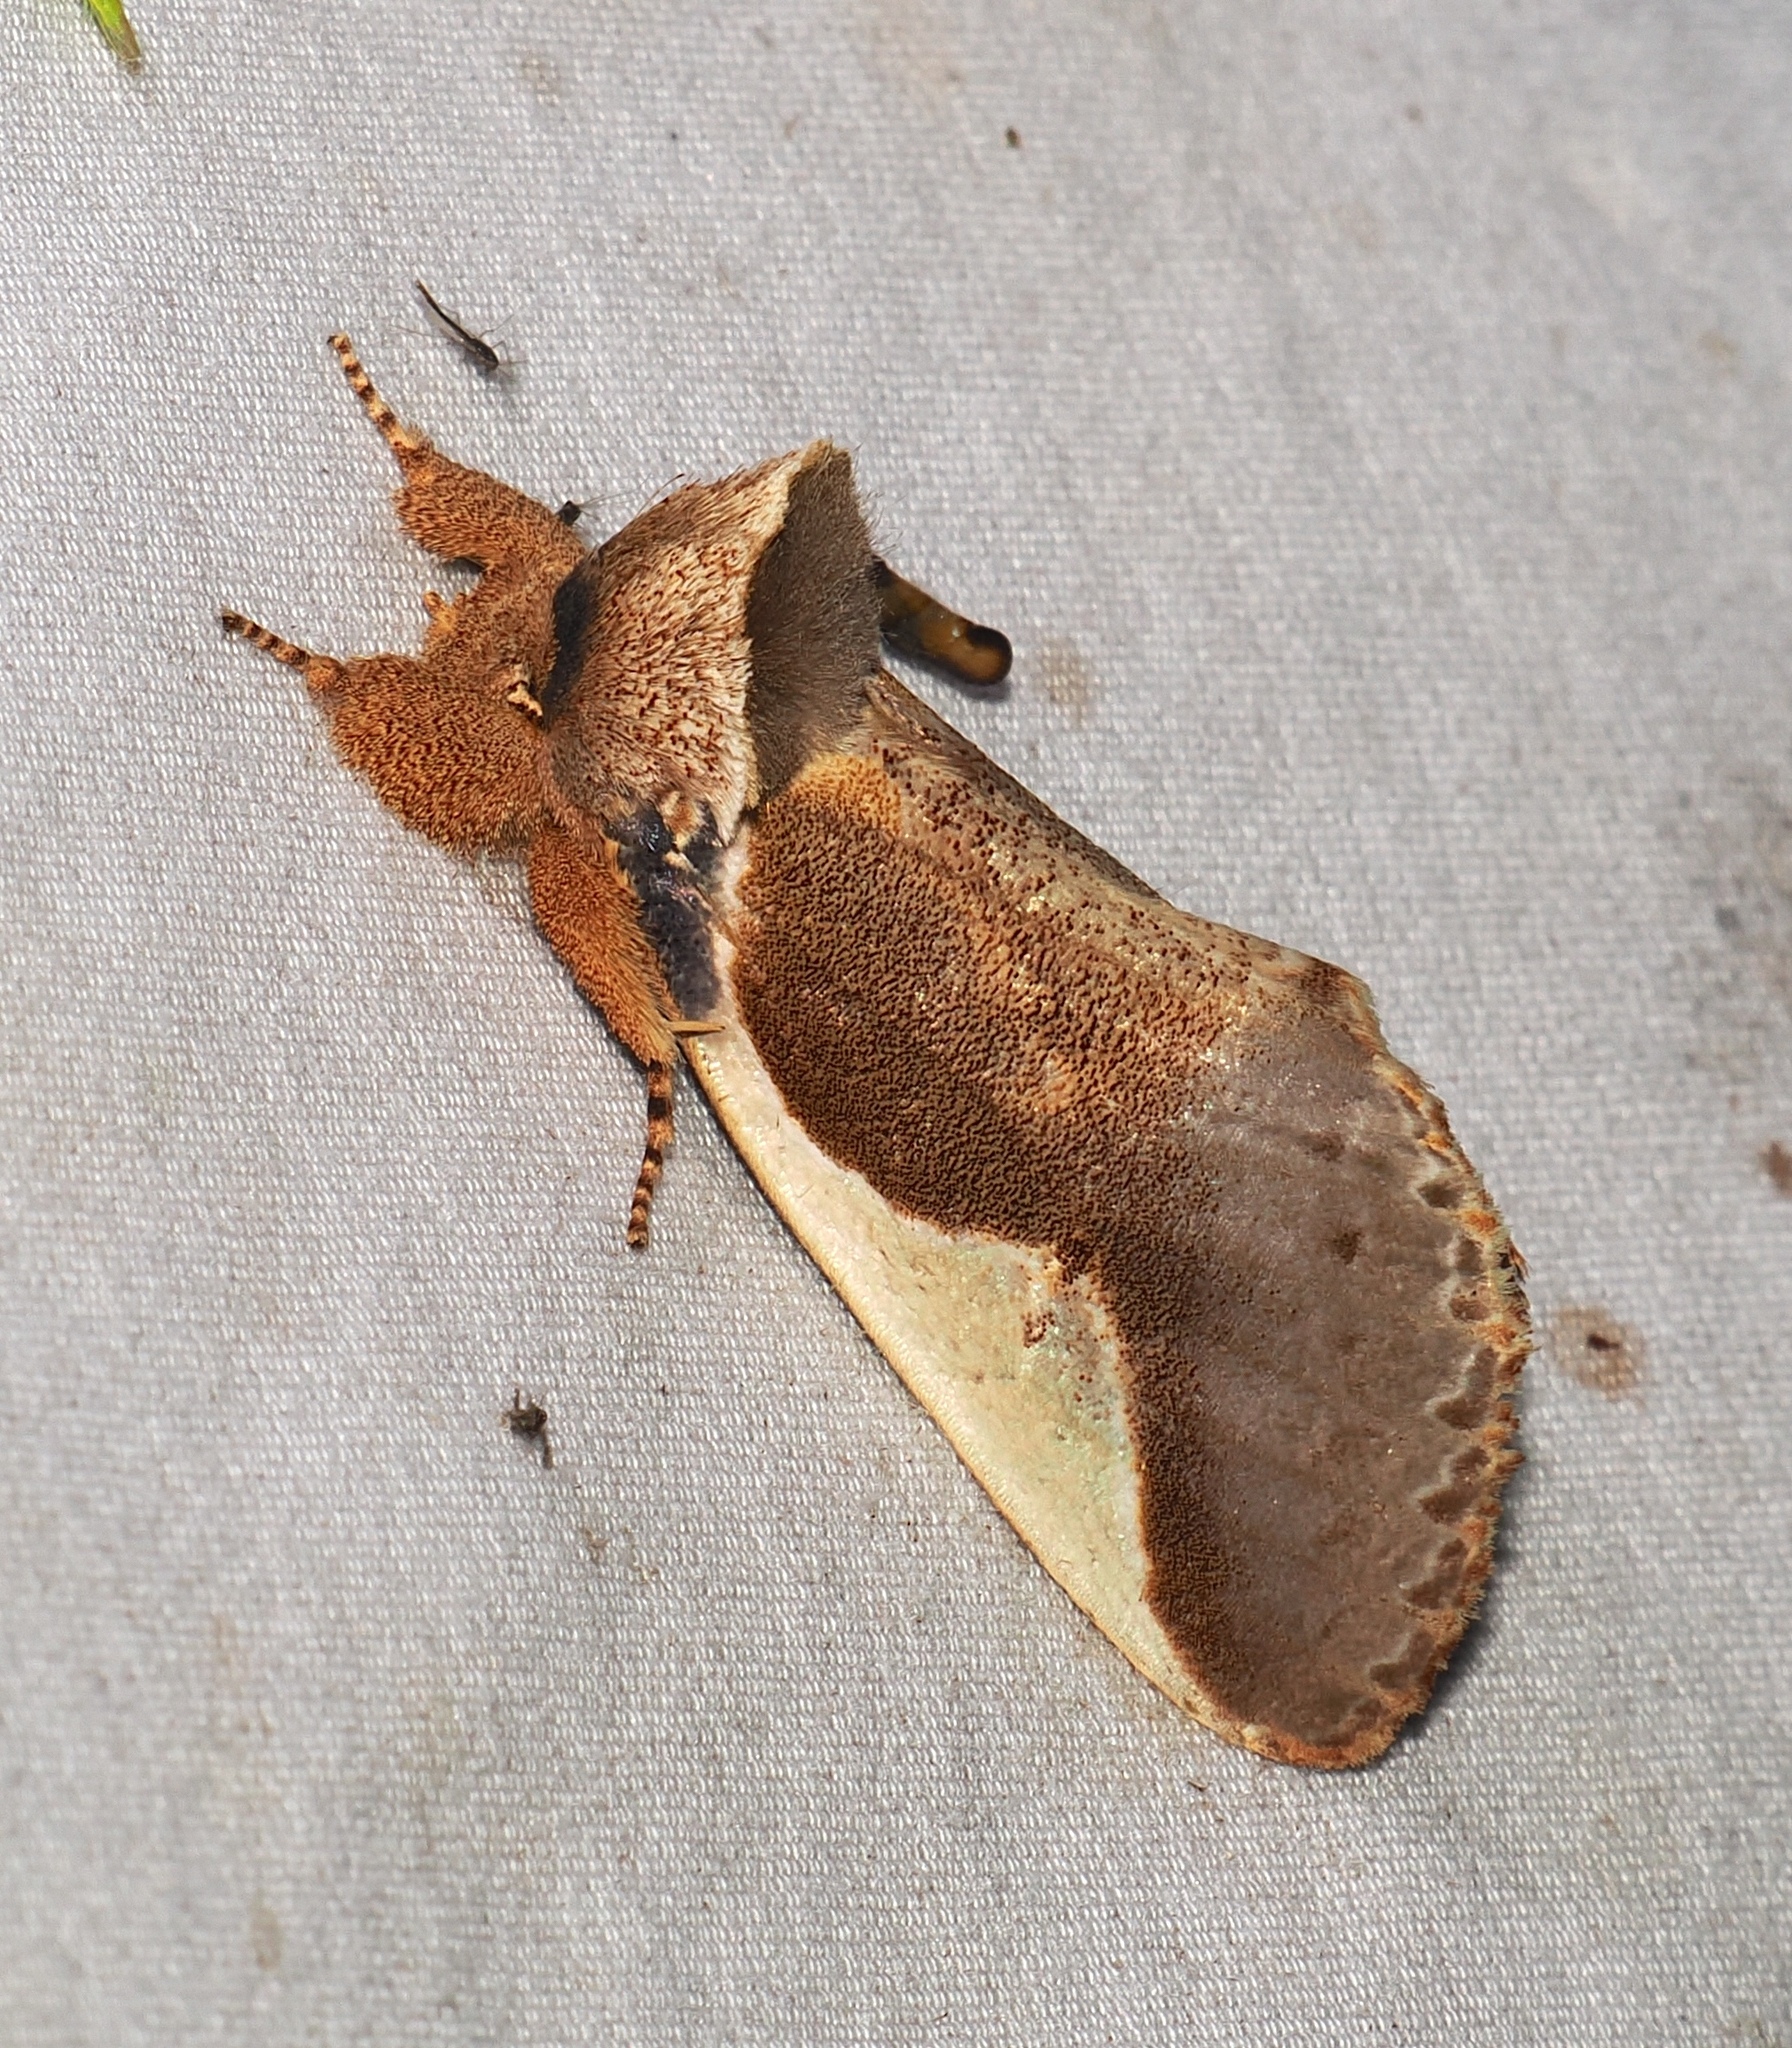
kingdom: Animalia
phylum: Arthropoda
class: Insecta
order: Lepidoptera
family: Notodontidae
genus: Arpema
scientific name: Arpema
